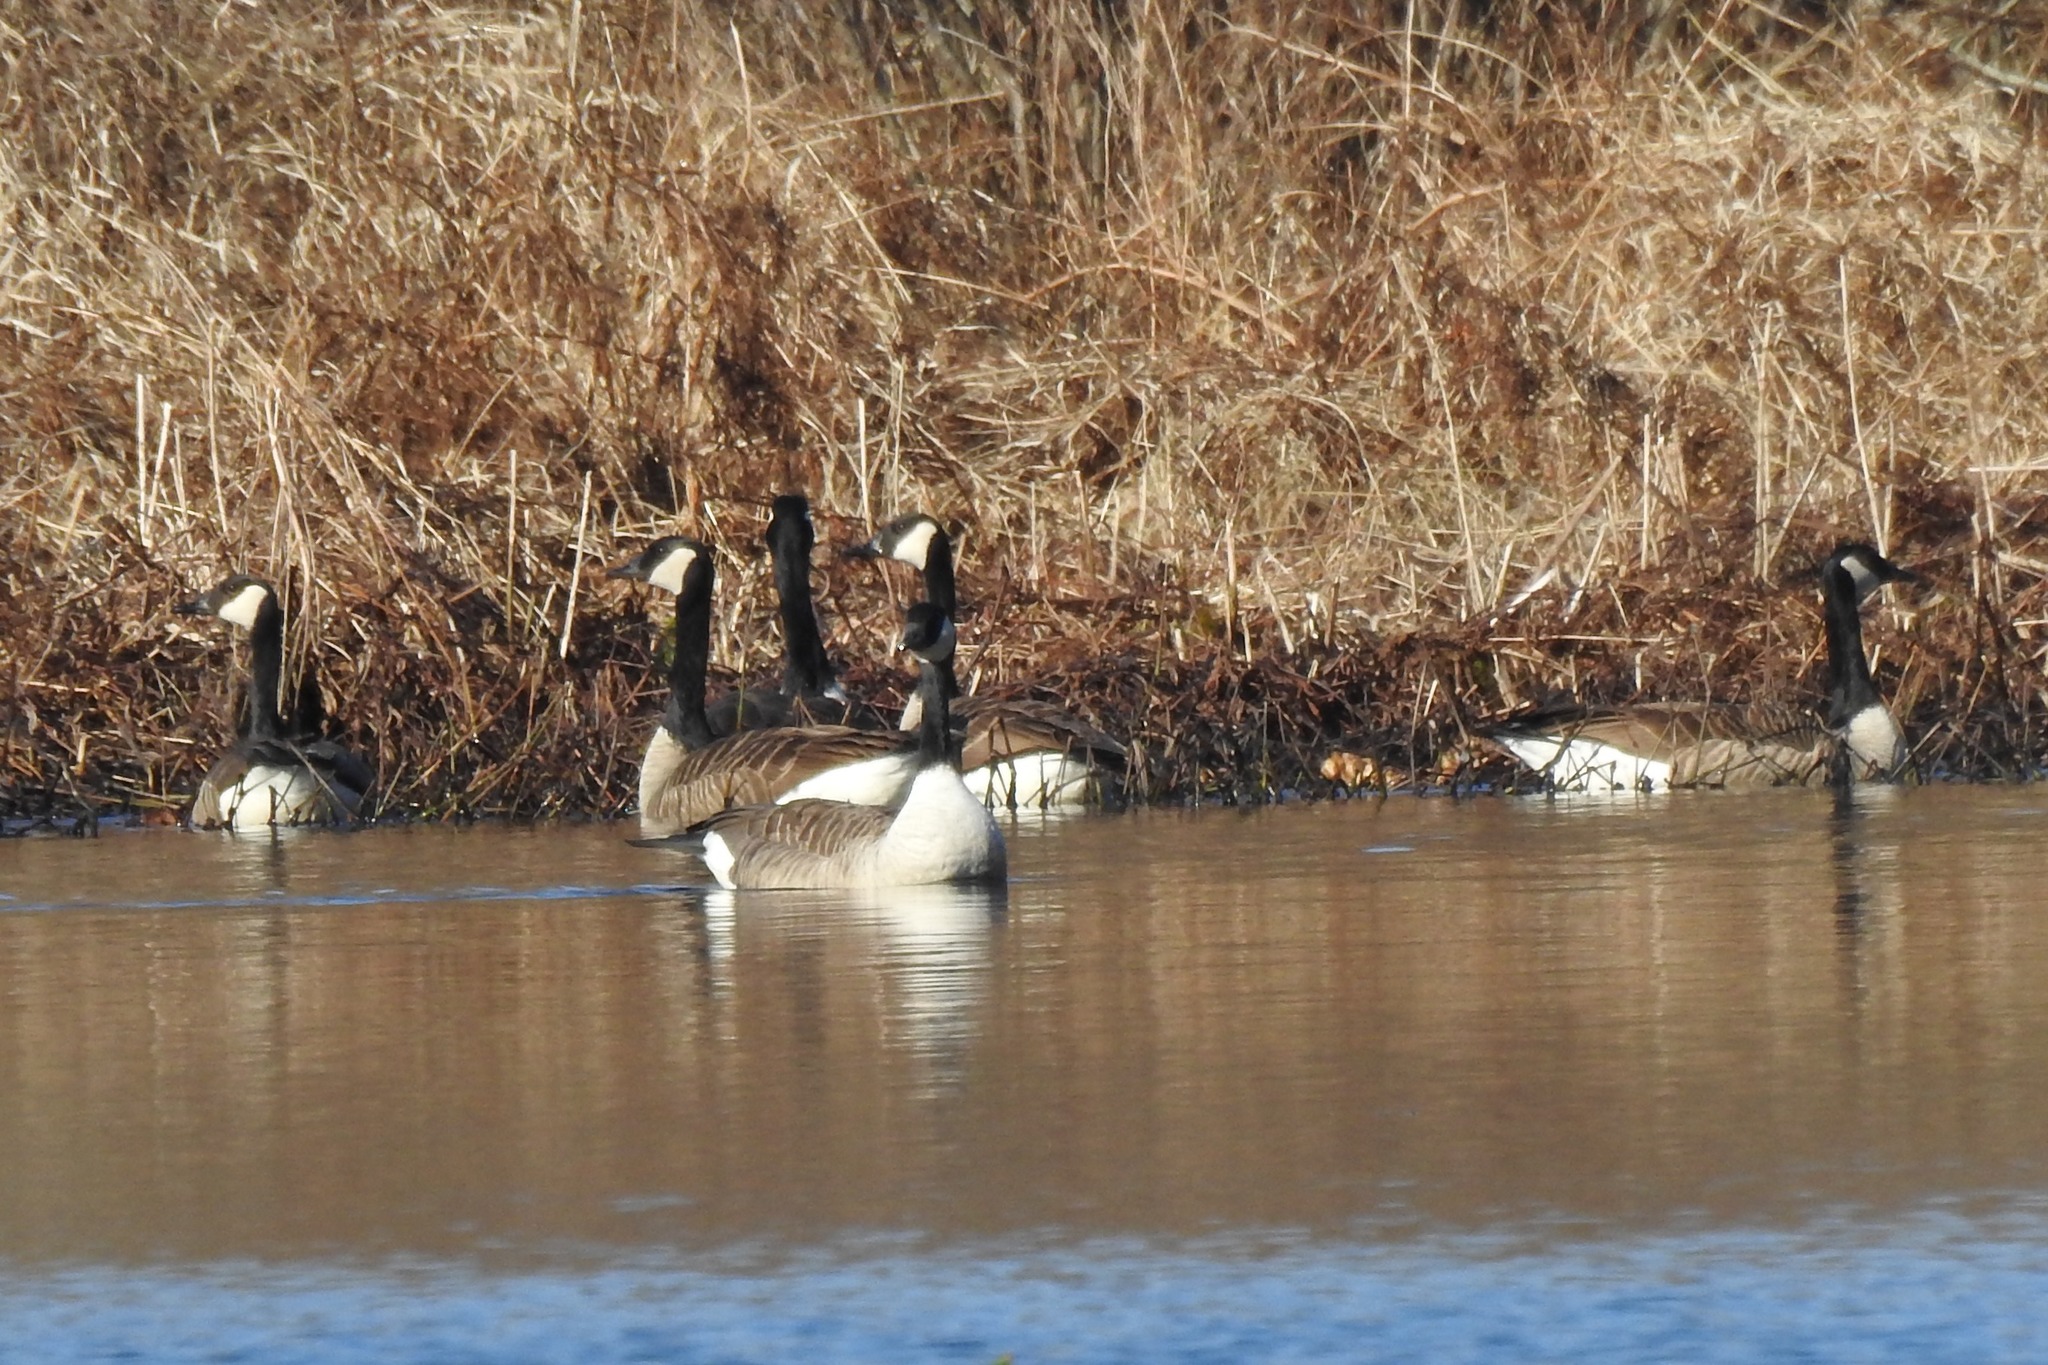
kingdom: Animalia
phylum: Chordata
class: Aves
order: Anseriformes
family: Anatidae
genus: Branta
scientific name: Branta canadensis
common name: Canada goose
